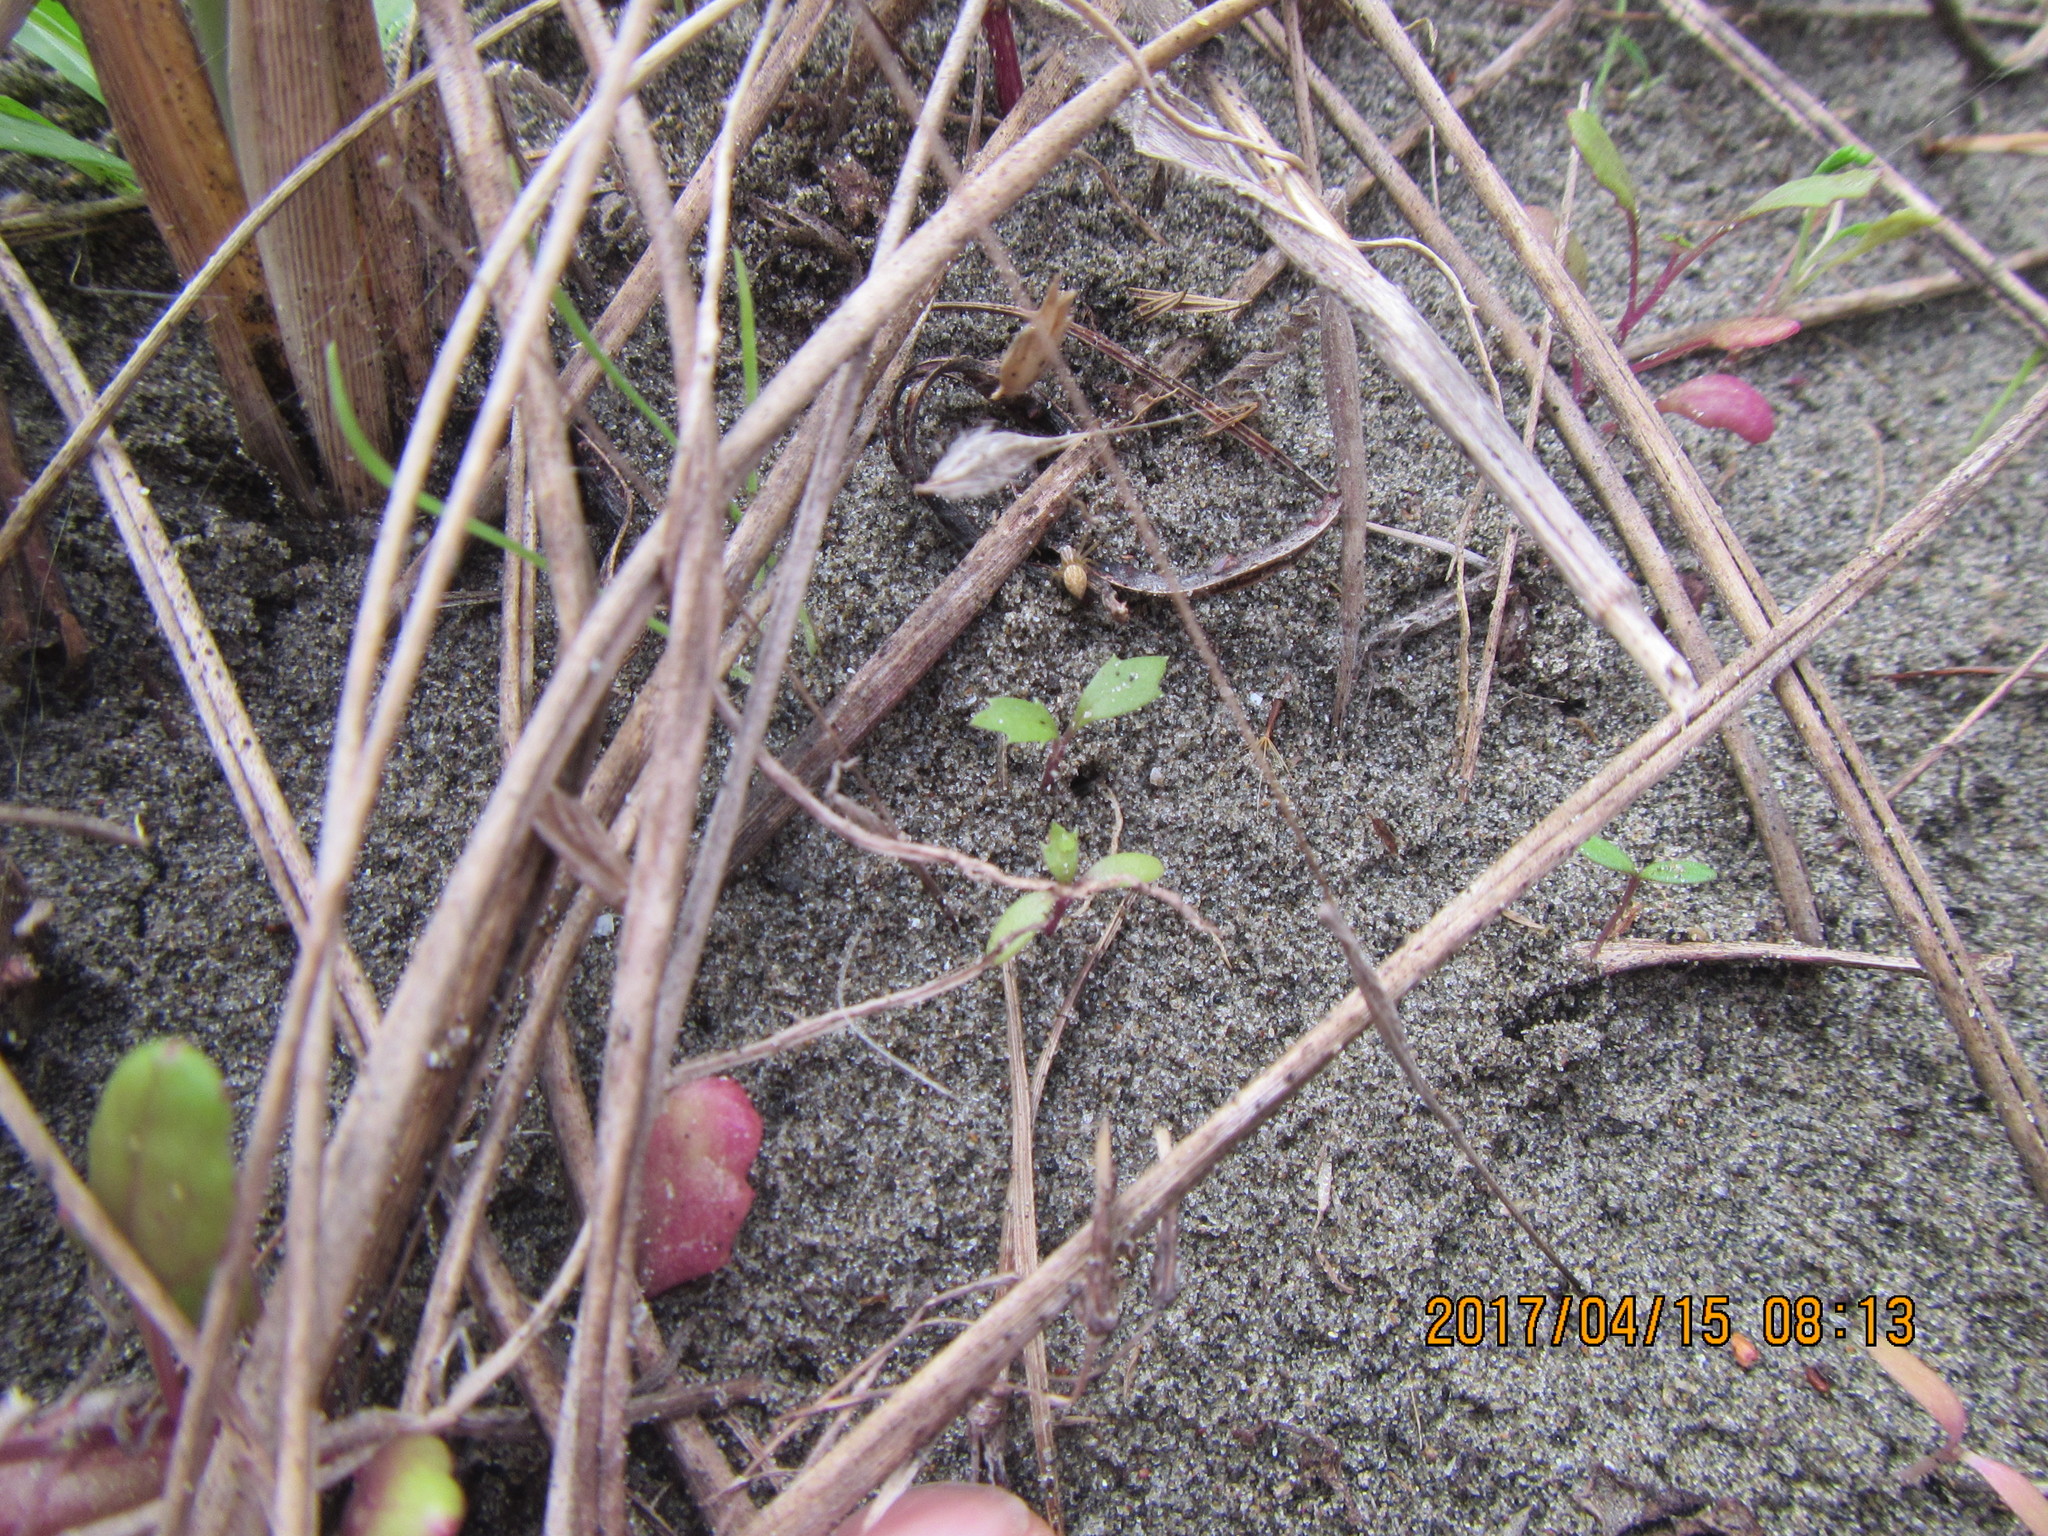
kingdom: Animalia
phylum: Arthropoda
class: Arachnida
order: Araneae
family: Oxyopidae
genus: Oxyopes
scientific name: Oxyopes gracilipes
